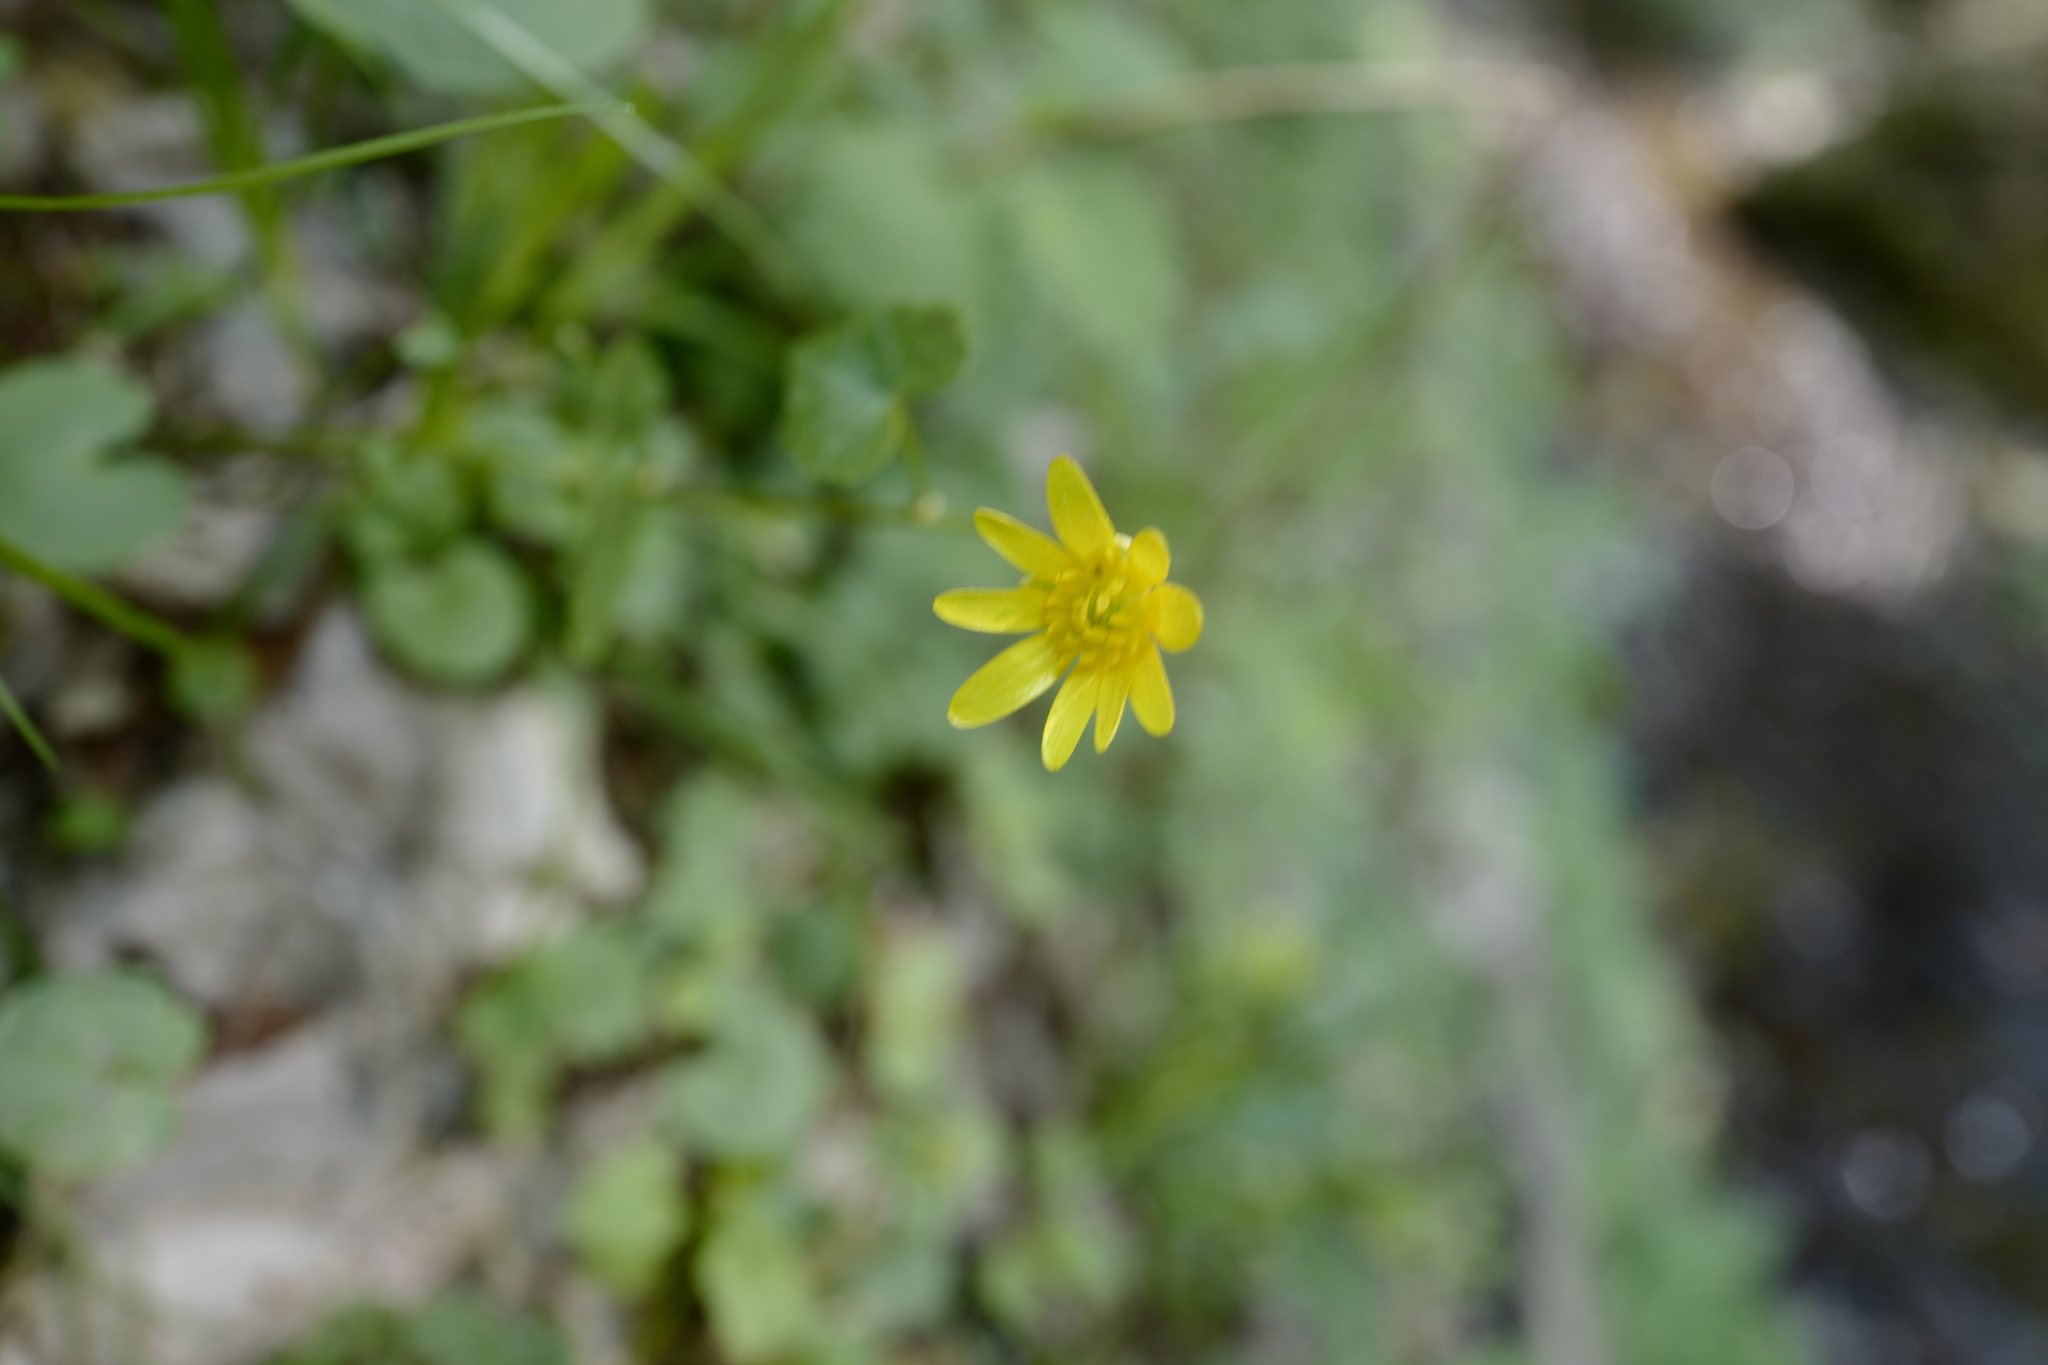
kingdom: Plantae
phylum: Tracheophyta
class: Magnoliopsida
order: Ranunculales
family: Ranunculaceae
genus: Ficaria
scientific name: Ficaria verna
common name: Lesser celandine
